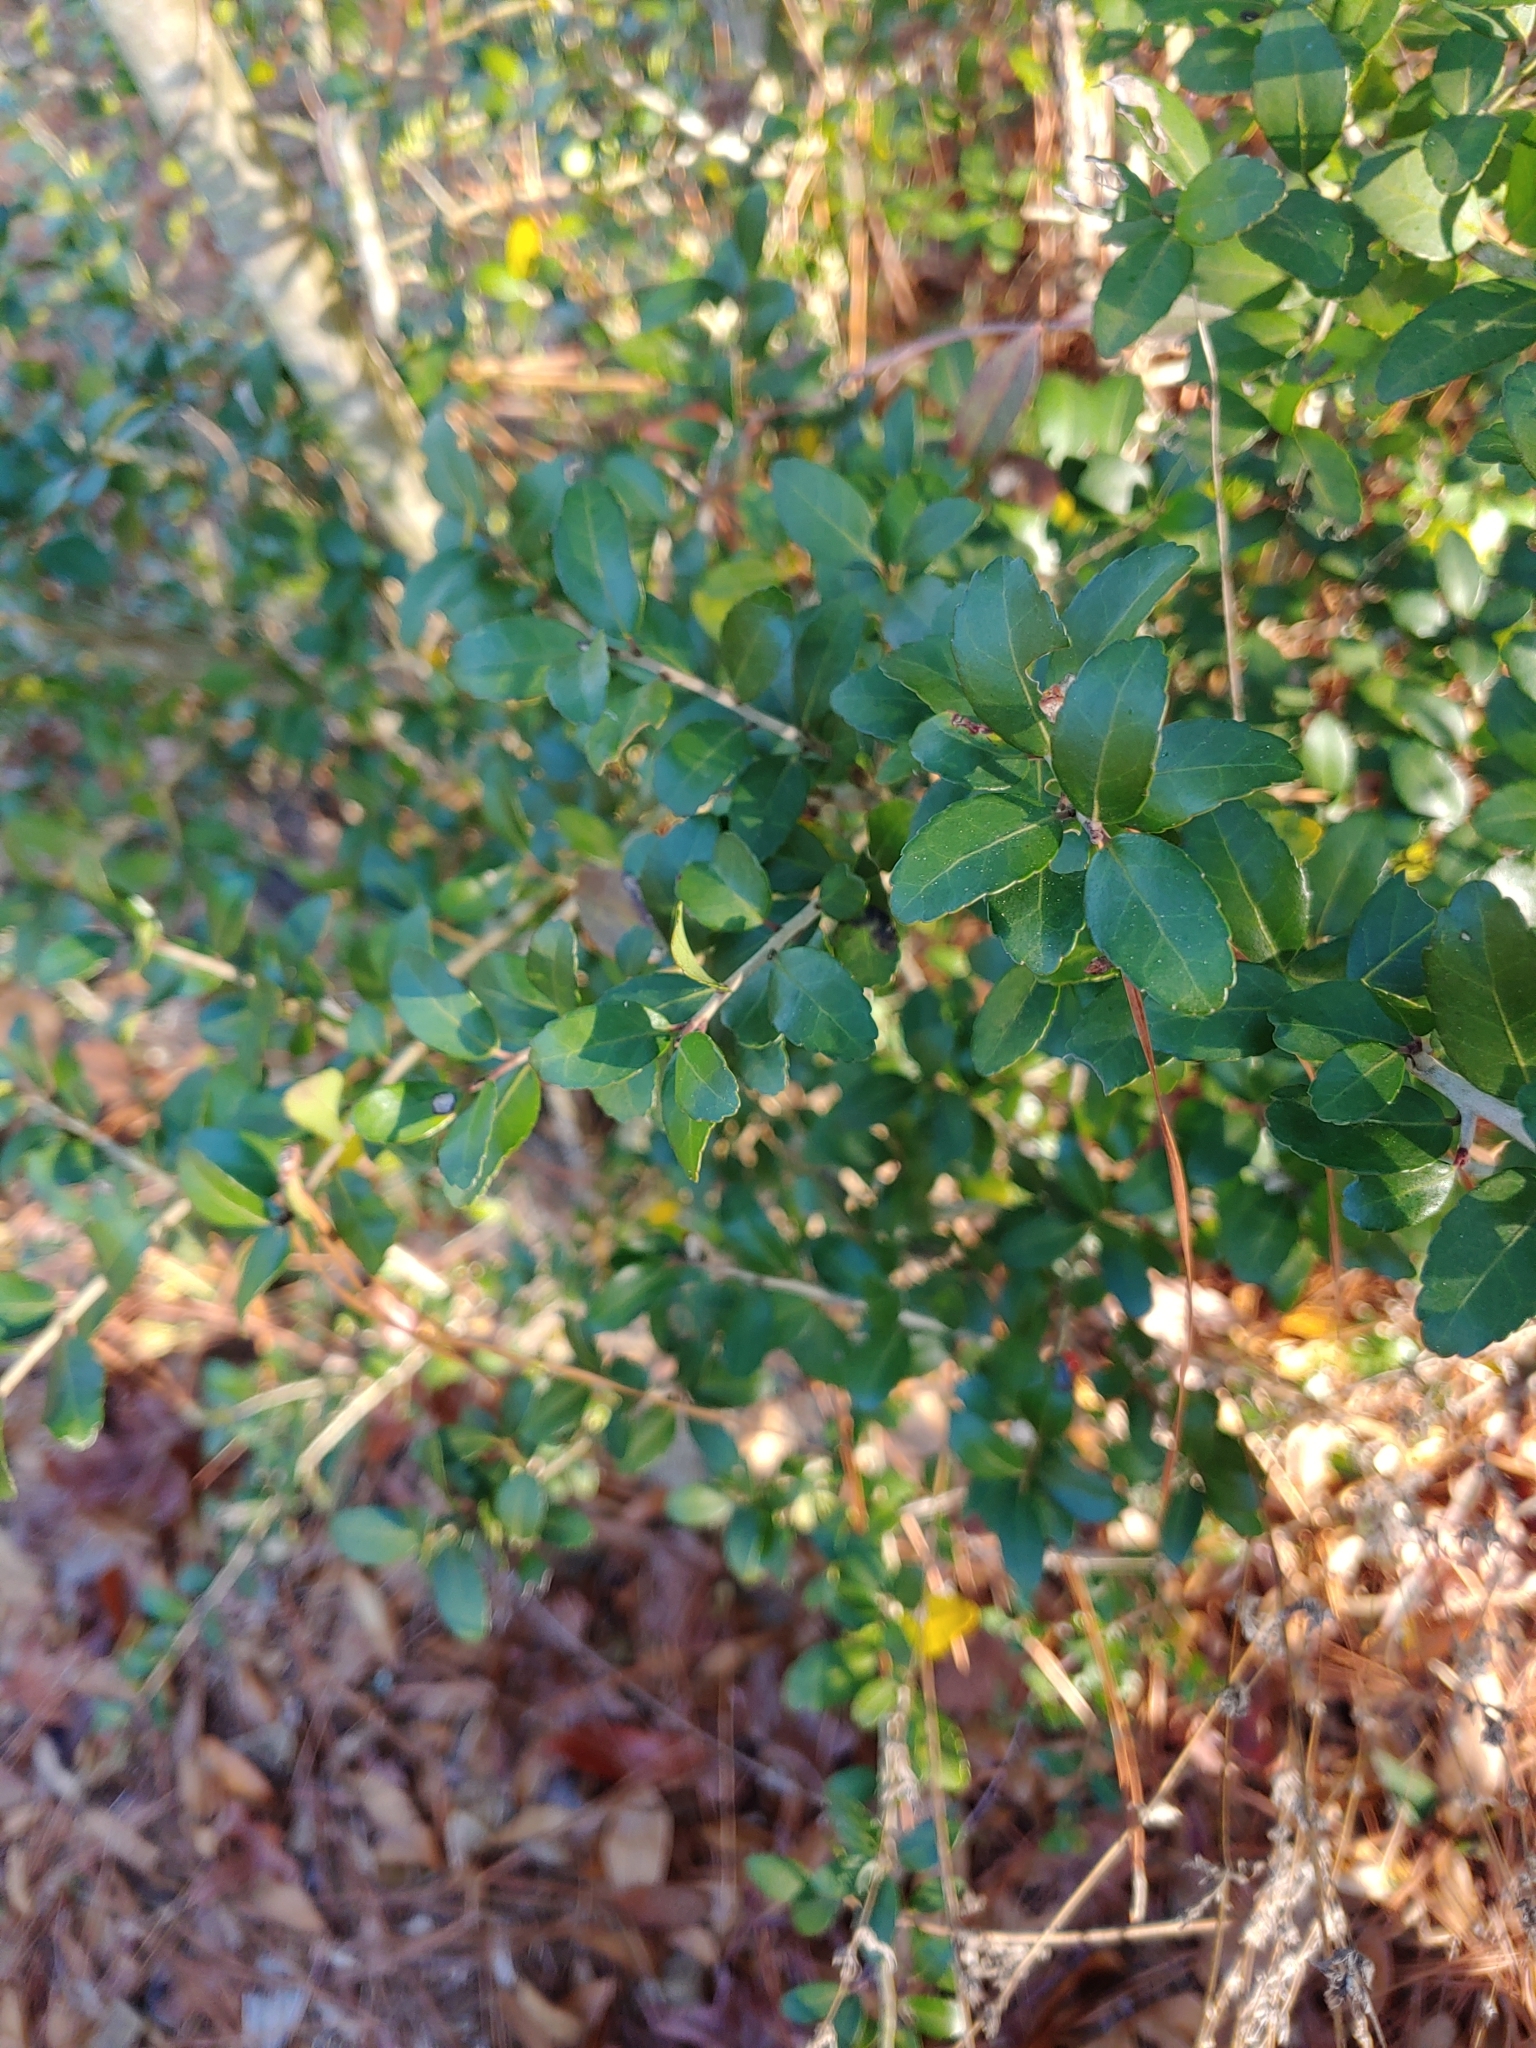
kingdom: Plantae
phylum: Tracheophyta
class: Magnoliopsida
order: Aquifoliales
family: Aquifoliaceae
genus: Ilex
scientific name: Ilex vomitoria
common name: Yaupon holly
